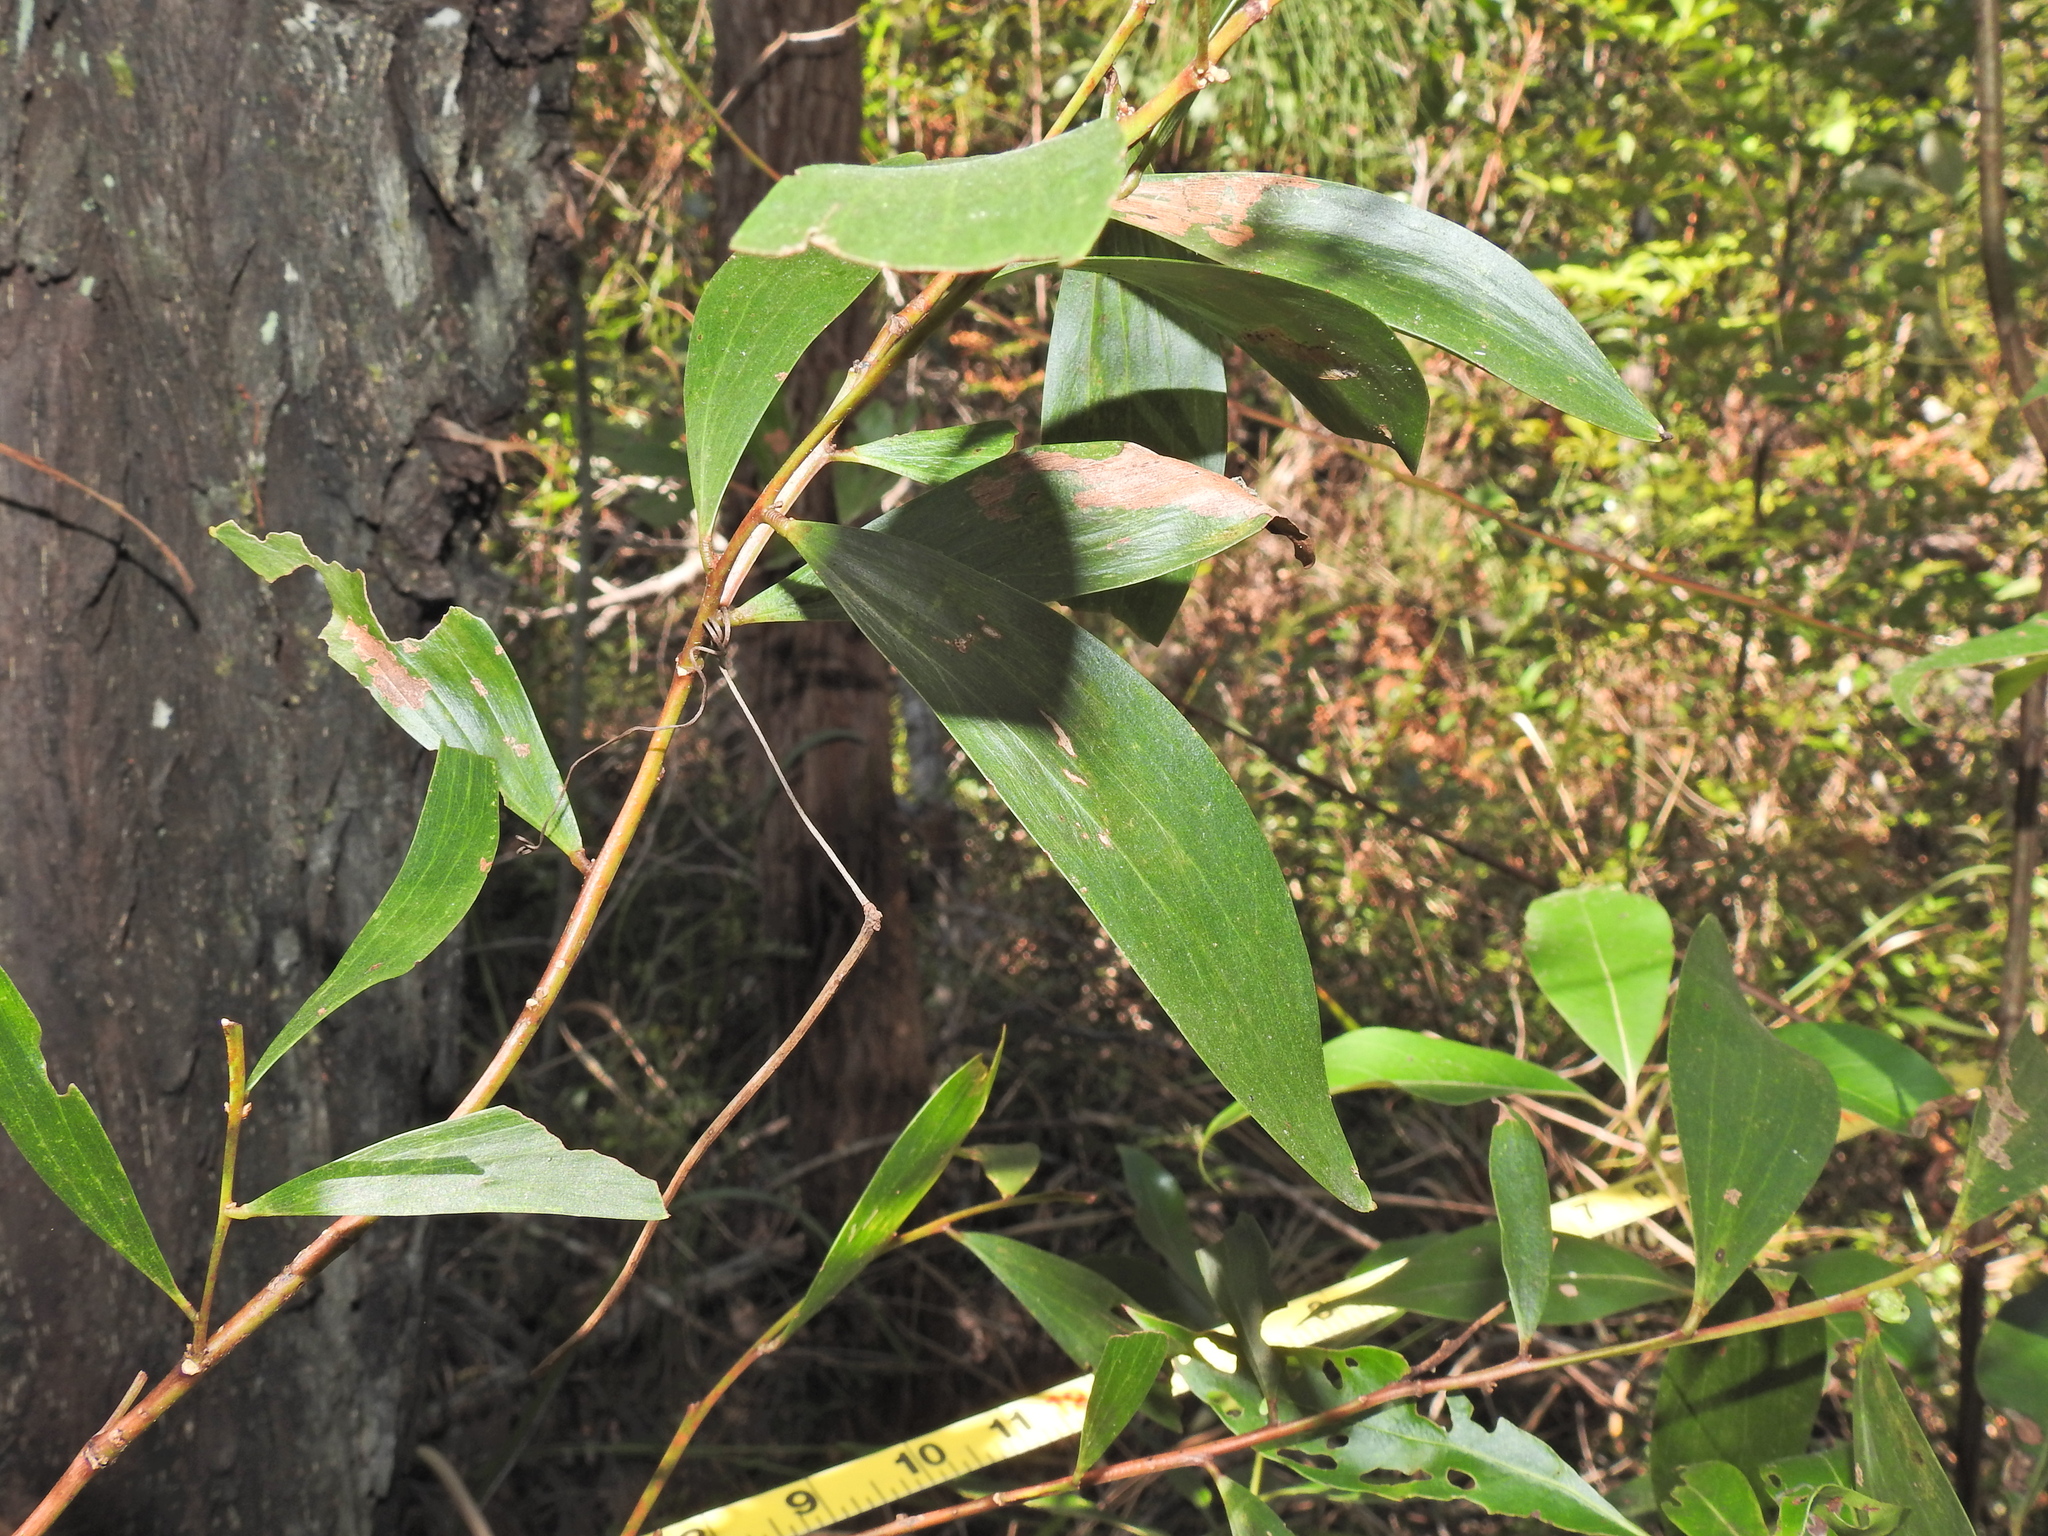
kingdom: Plantae
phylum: Tracheophyta
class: Magnoliopsida
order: Fabales
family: Fabaceae
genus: Acacia
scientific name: Acacia leiocalyx
